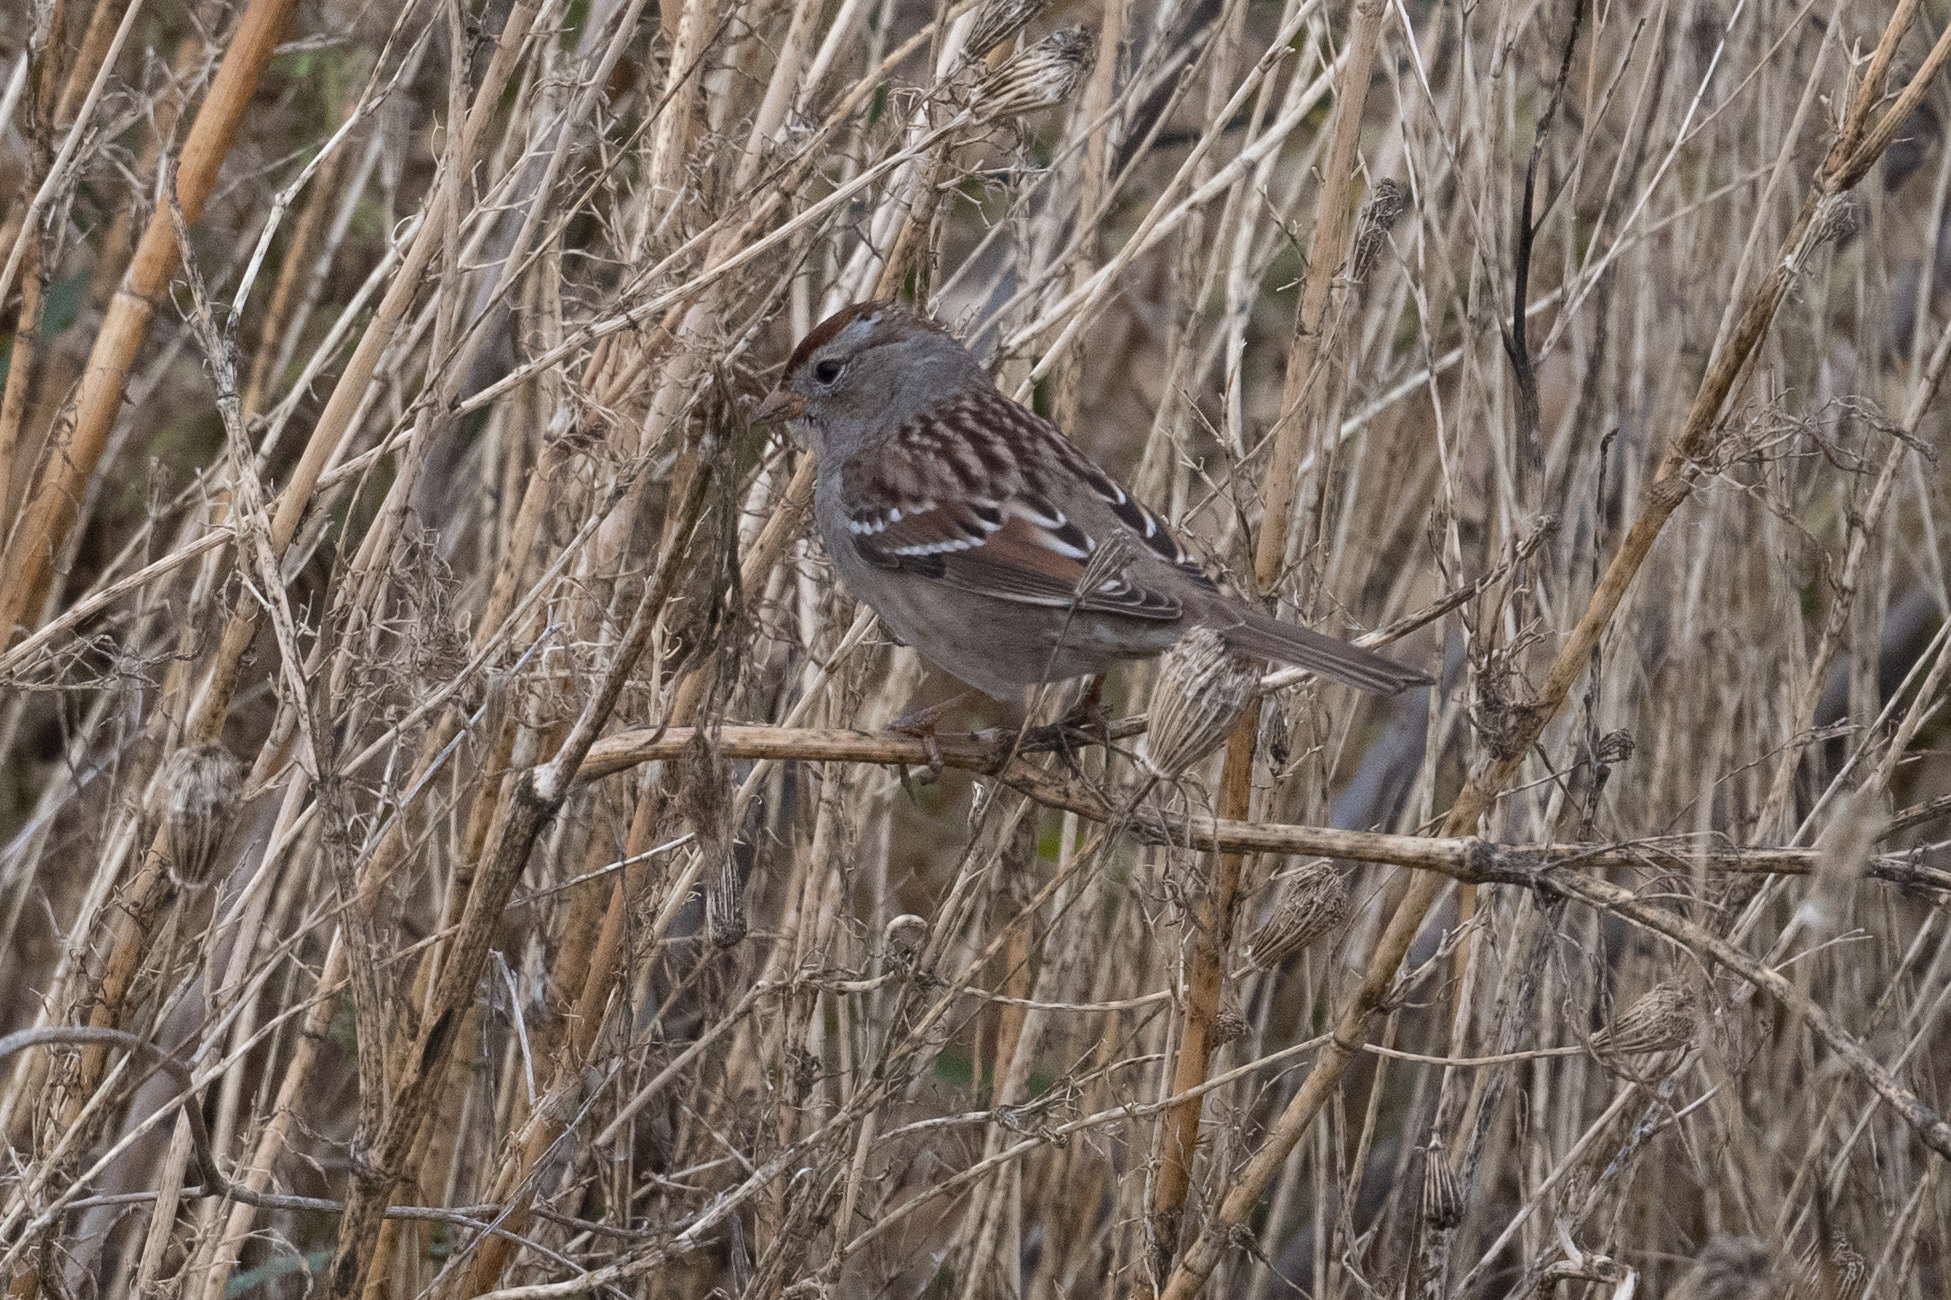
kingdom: Animalia
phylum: Chordata
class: Aves
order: Passeriformes
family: Passerellidae
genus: Zonotrichia
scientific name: Zonotrichia leucophrys
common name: White-crowned sparrow
